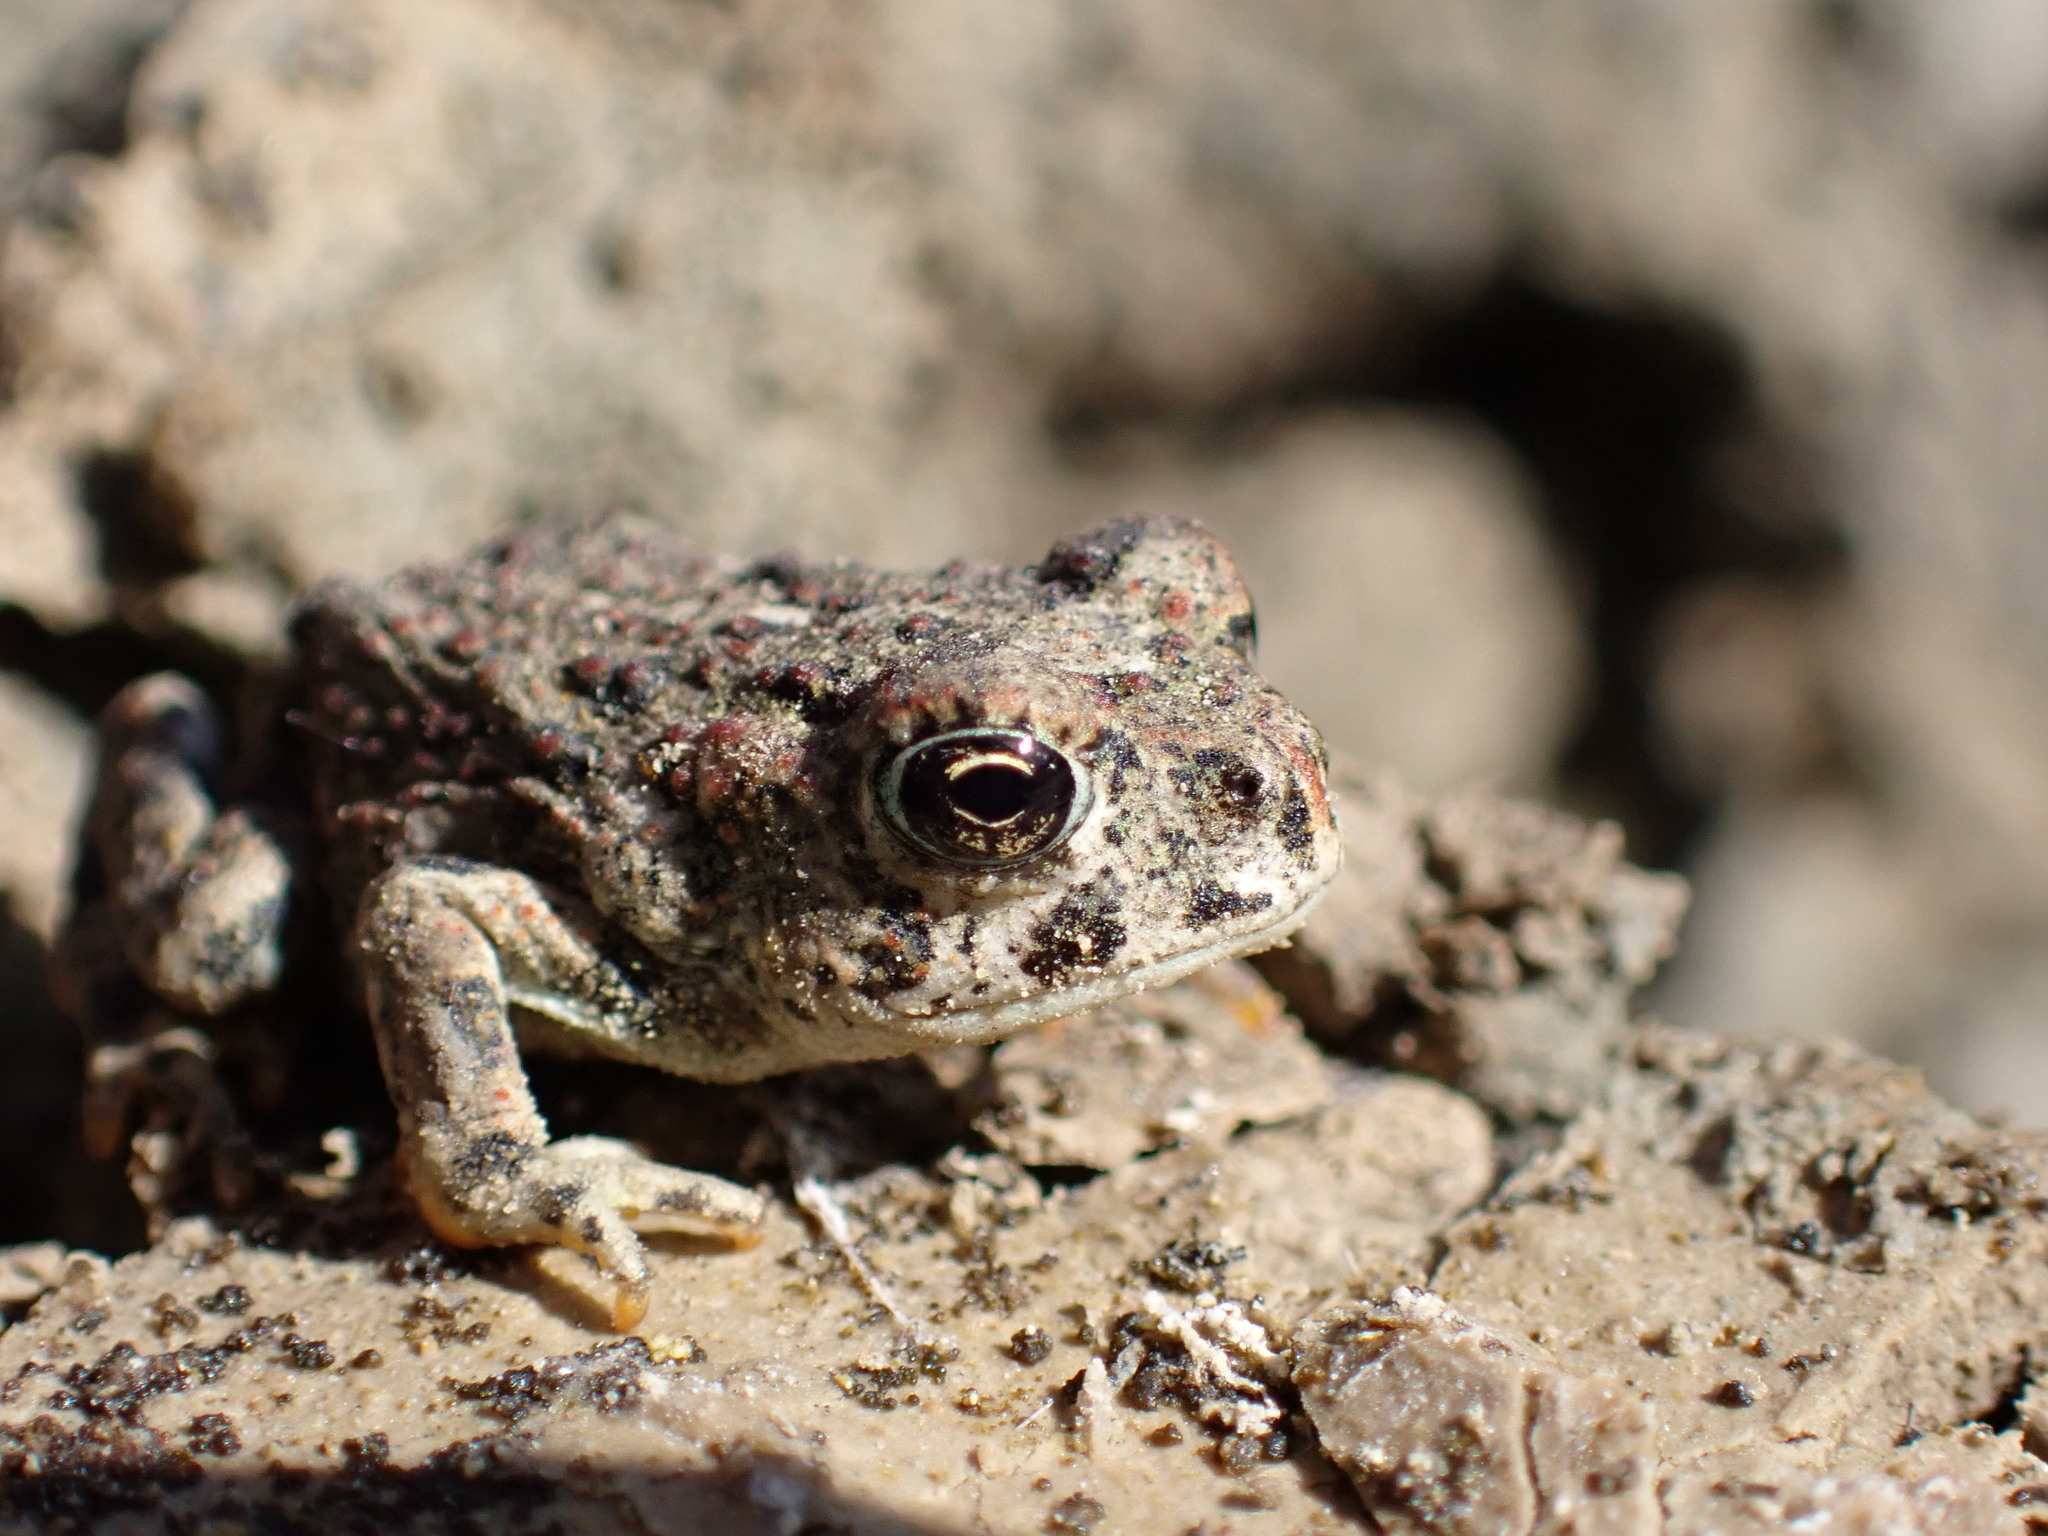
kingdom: Animalia
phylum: Chordata
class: Amphibia
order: Anura
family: Bufonidae
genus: Anaxyrus
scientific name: Anaxyrus boreas
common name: Western toad
